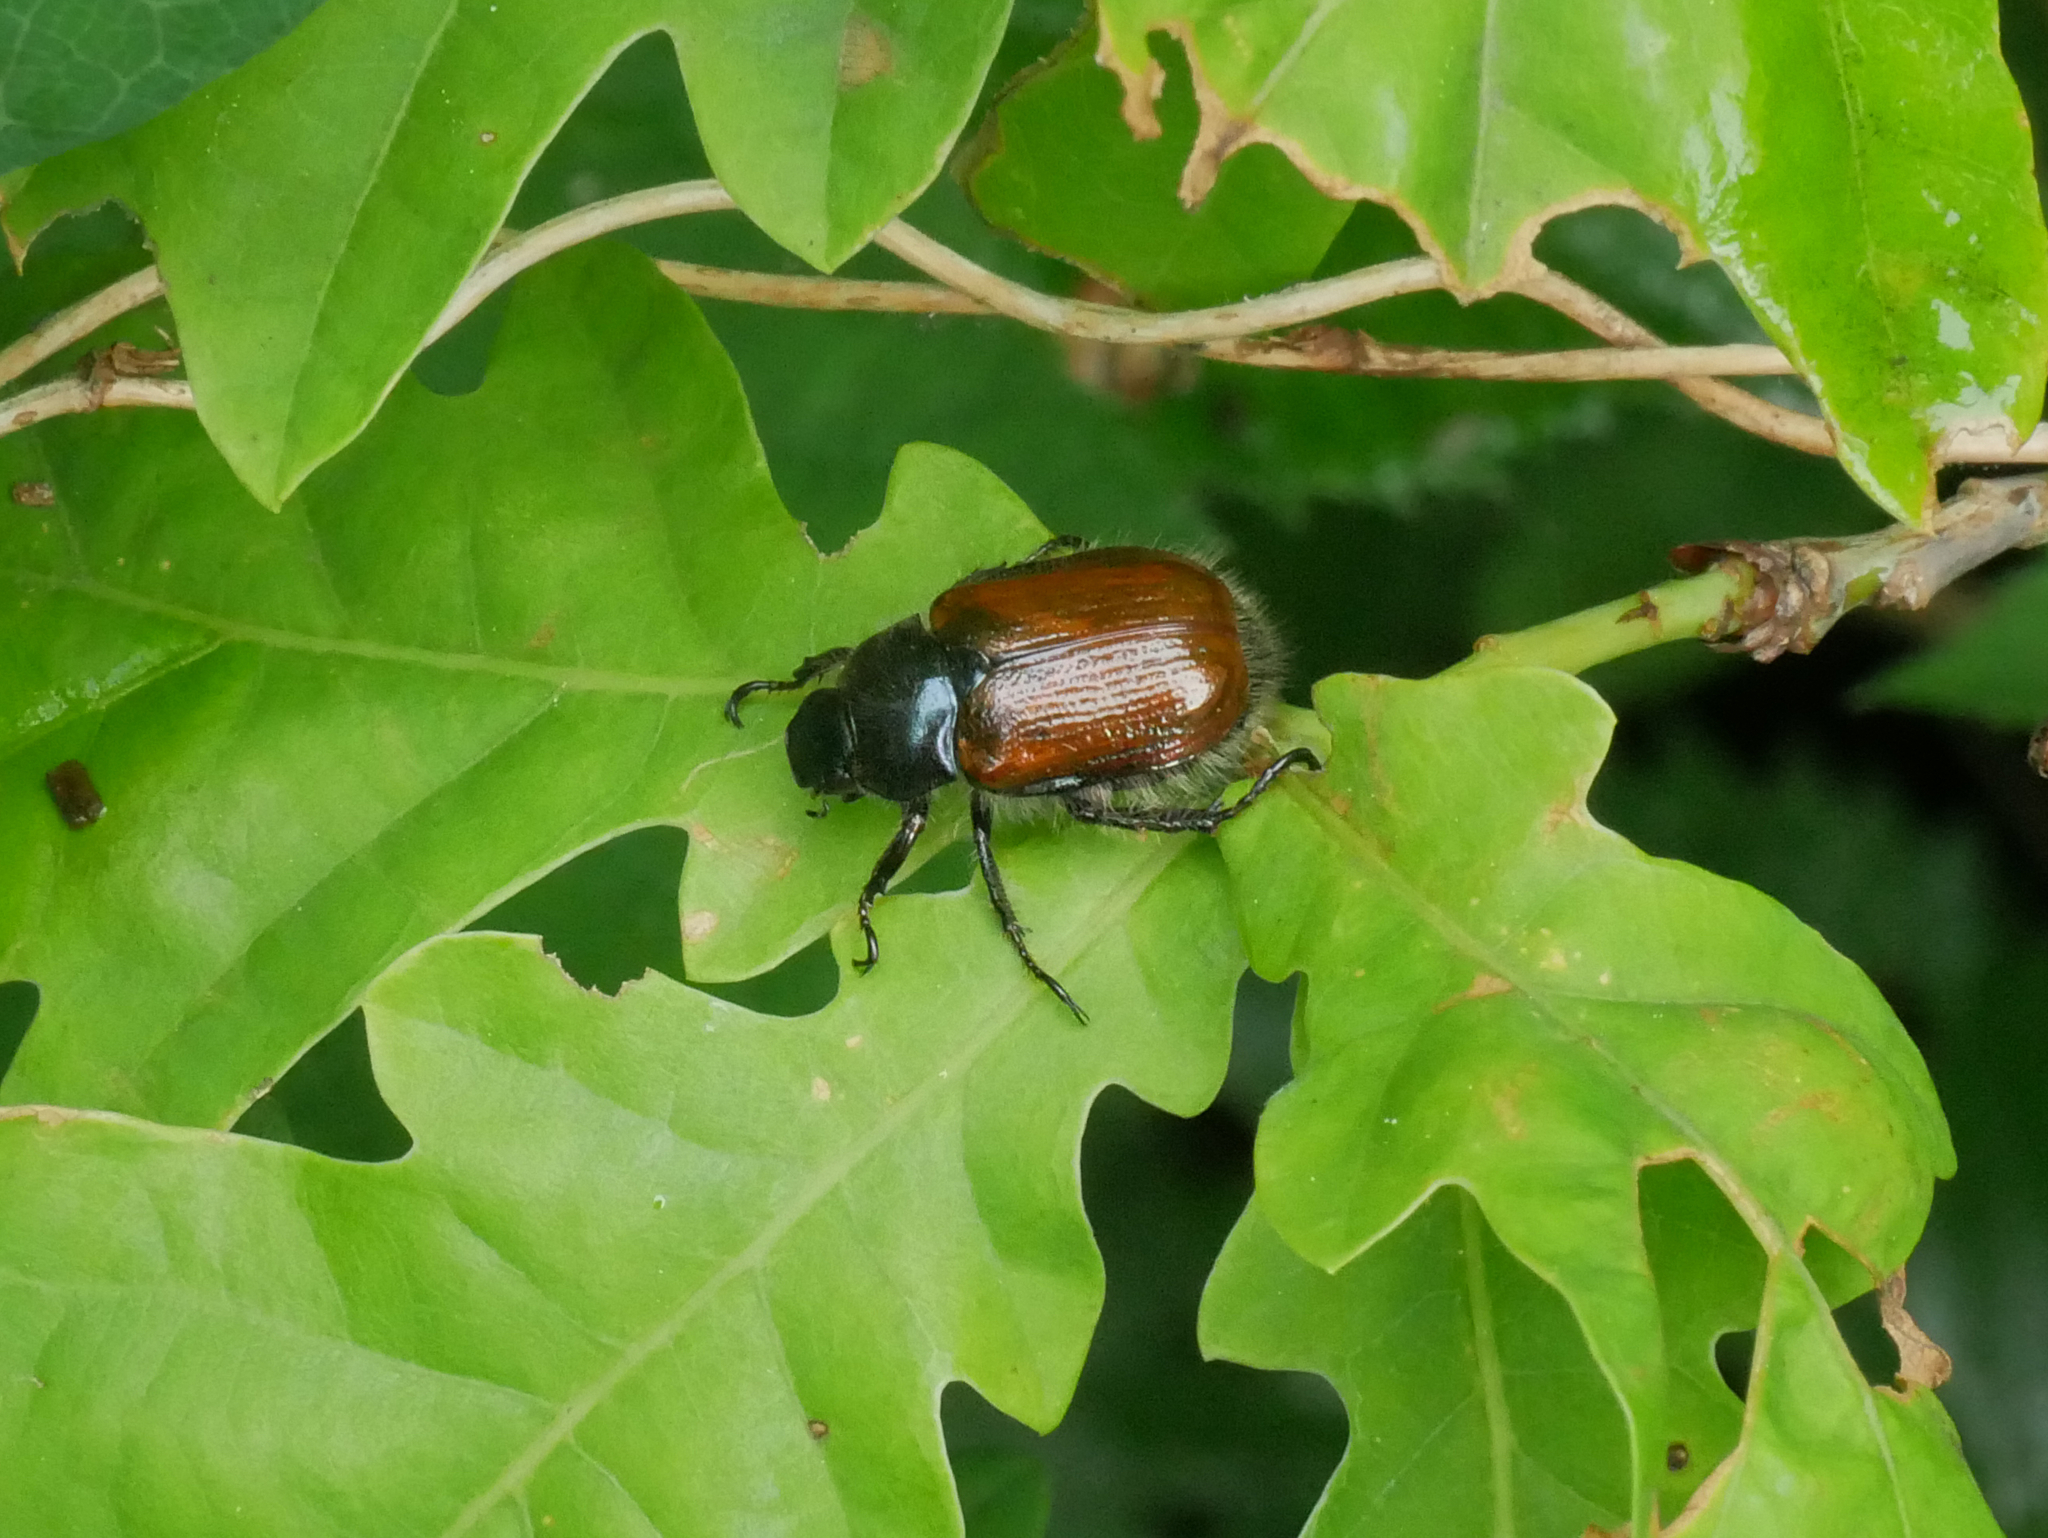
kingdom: Animalia
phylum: Arthropoda
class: Insecta
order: Coleoptera
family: Scarabaeidae
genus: Phyllopertha
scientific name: Phyllopertha horticola
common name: Garden chafer
